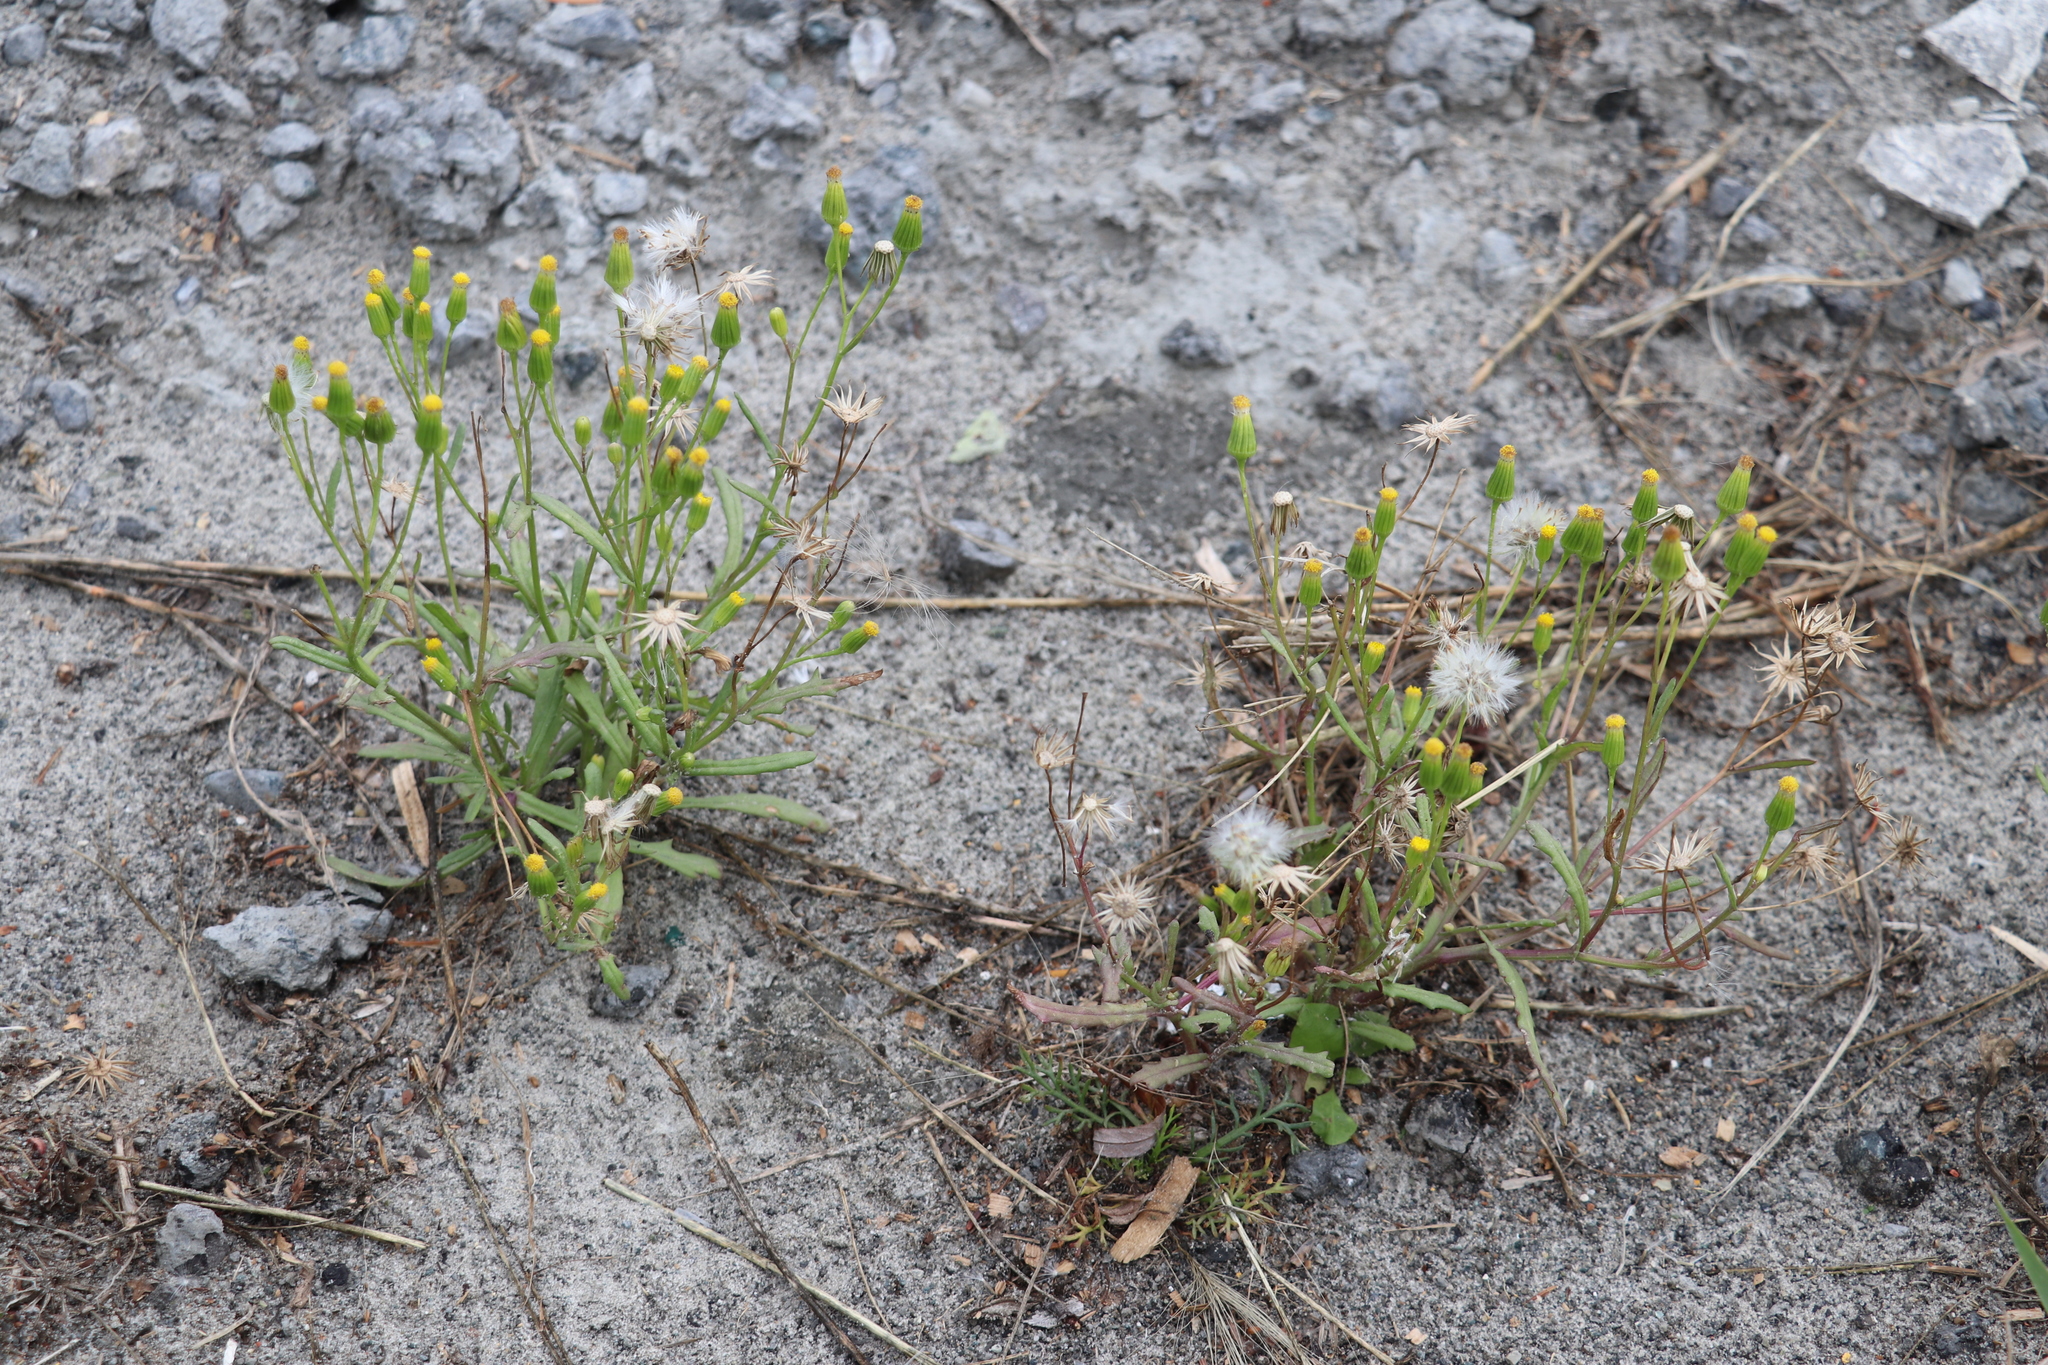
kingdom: Plantae
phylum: Tracheophyta
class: Magnoliopsida
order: Asterales
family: Asteraceae
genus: Senecio
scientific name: Senecio dubitabilis
